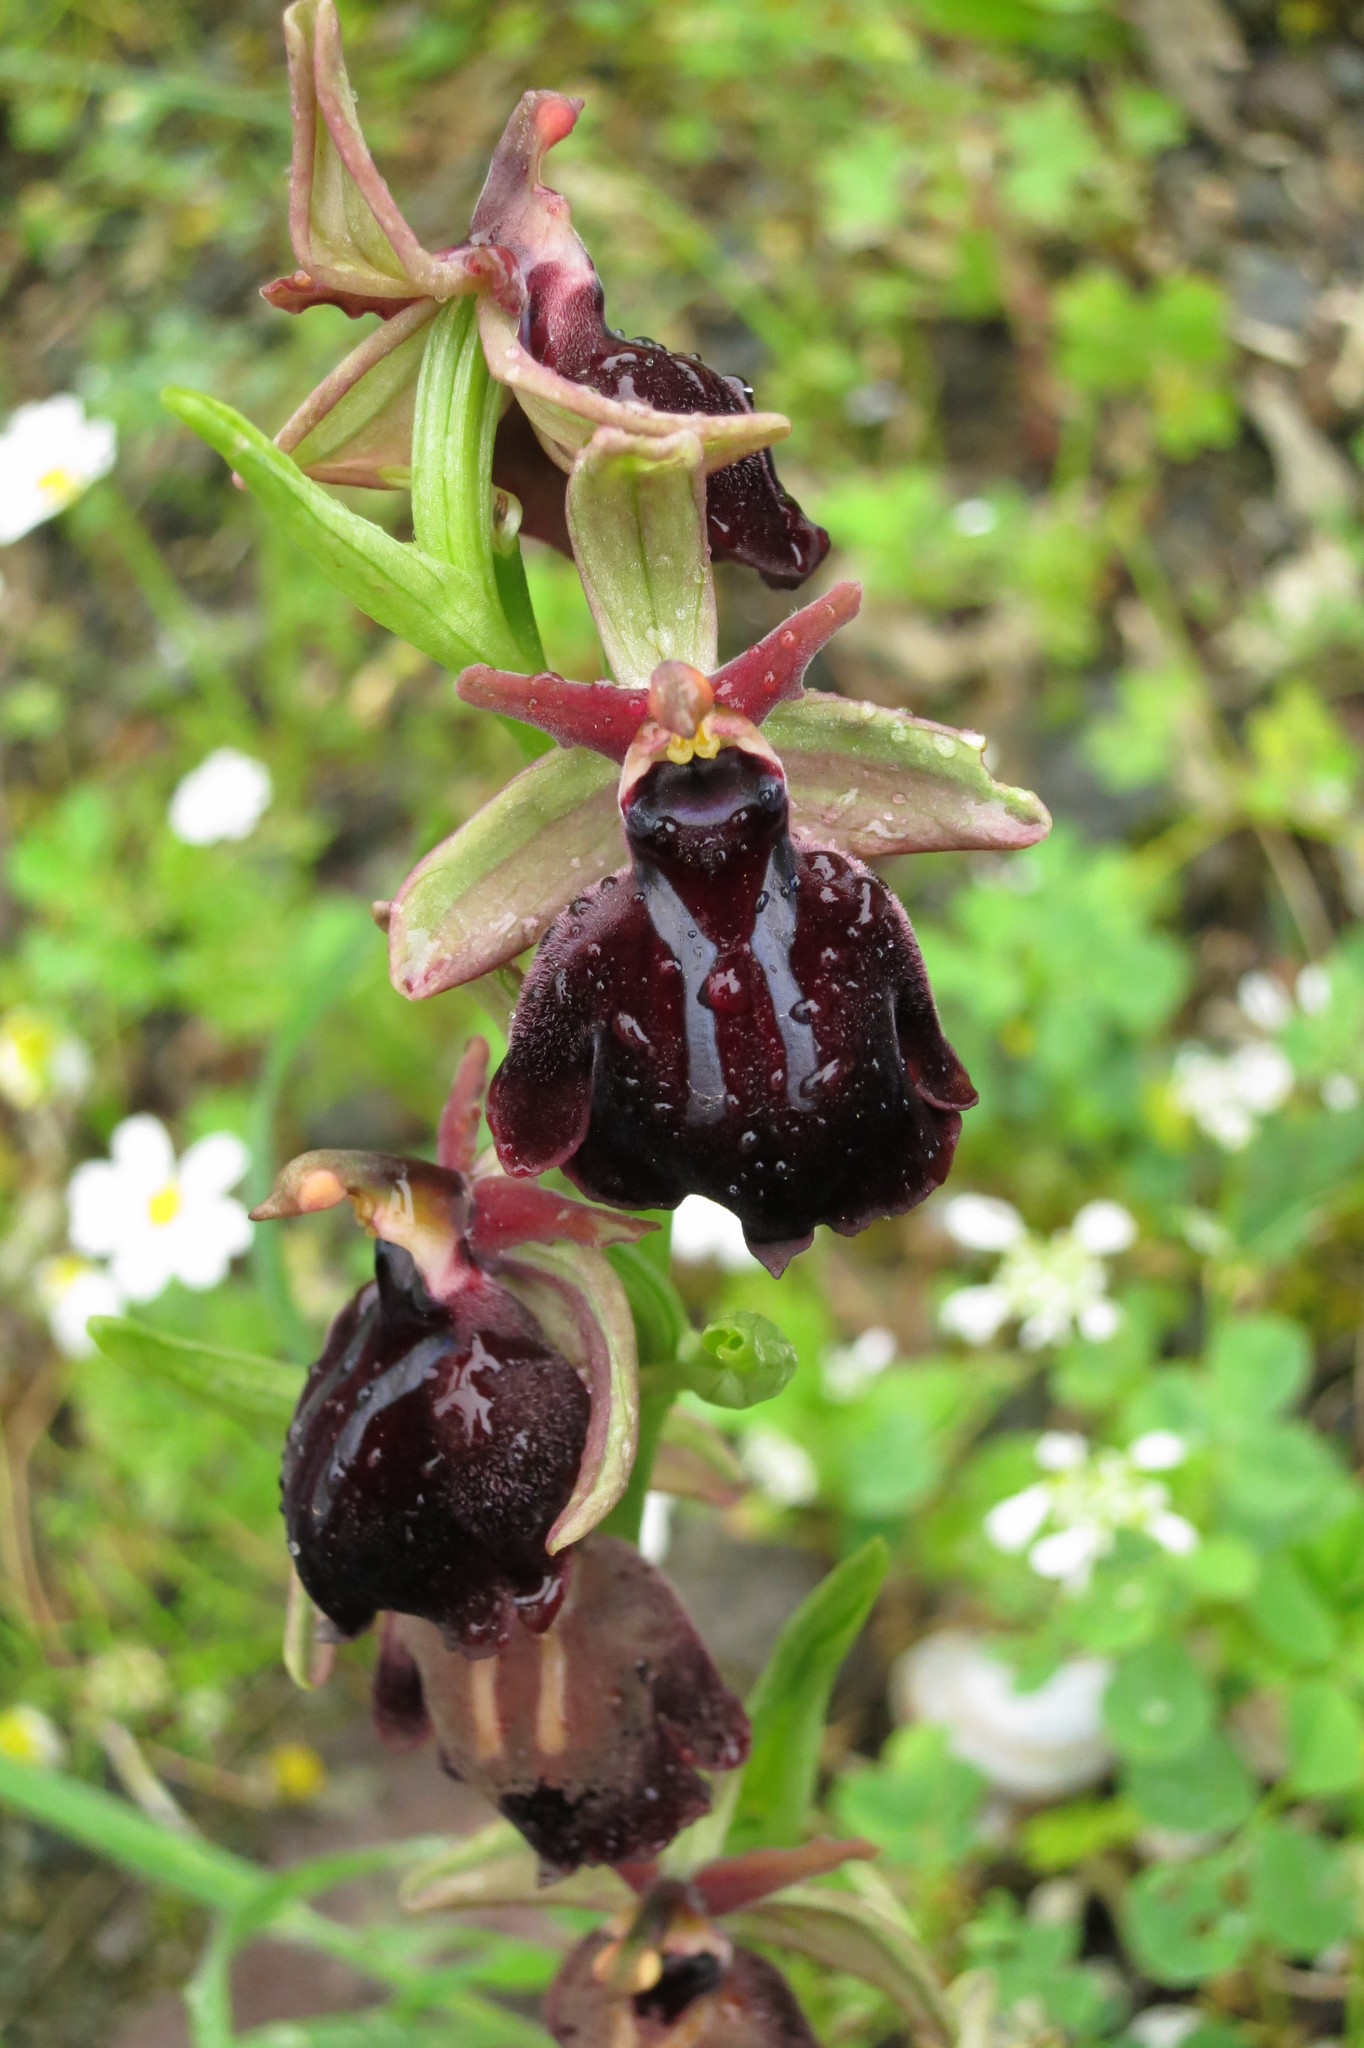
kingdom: Plantae
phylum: Tracheophyta
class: Liliopsida
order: Asparagales
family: Orchidaceae
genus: Ophrys
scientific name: Ophrys sphegodes
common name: Early spider-orchid
